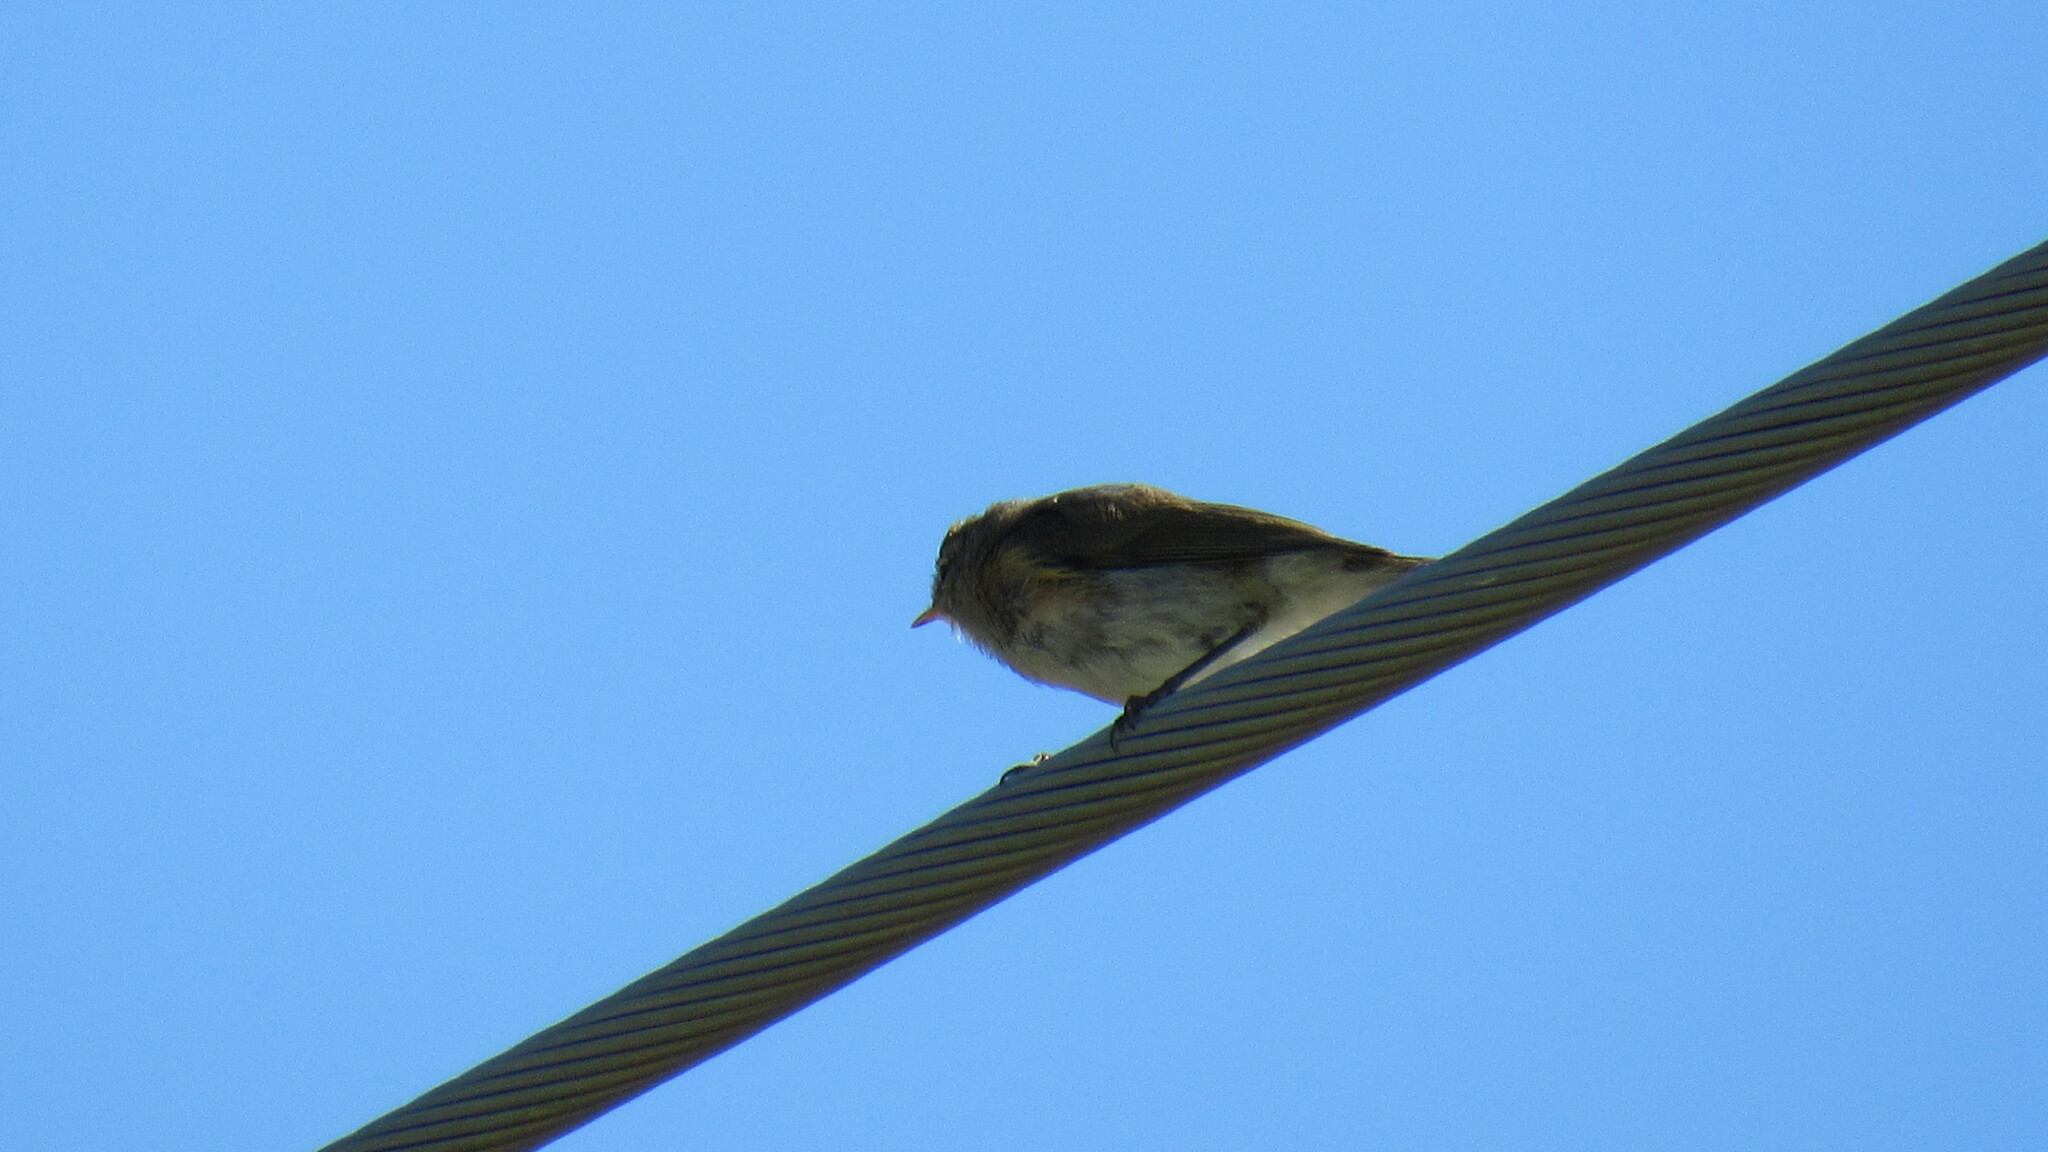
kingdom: Animalia
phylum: Chordata
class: Aves
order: Passeriformes
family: Phylloscopidae
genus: Phylloscopus
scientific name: Phylloscopus collybita
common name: Common chiffchaff
